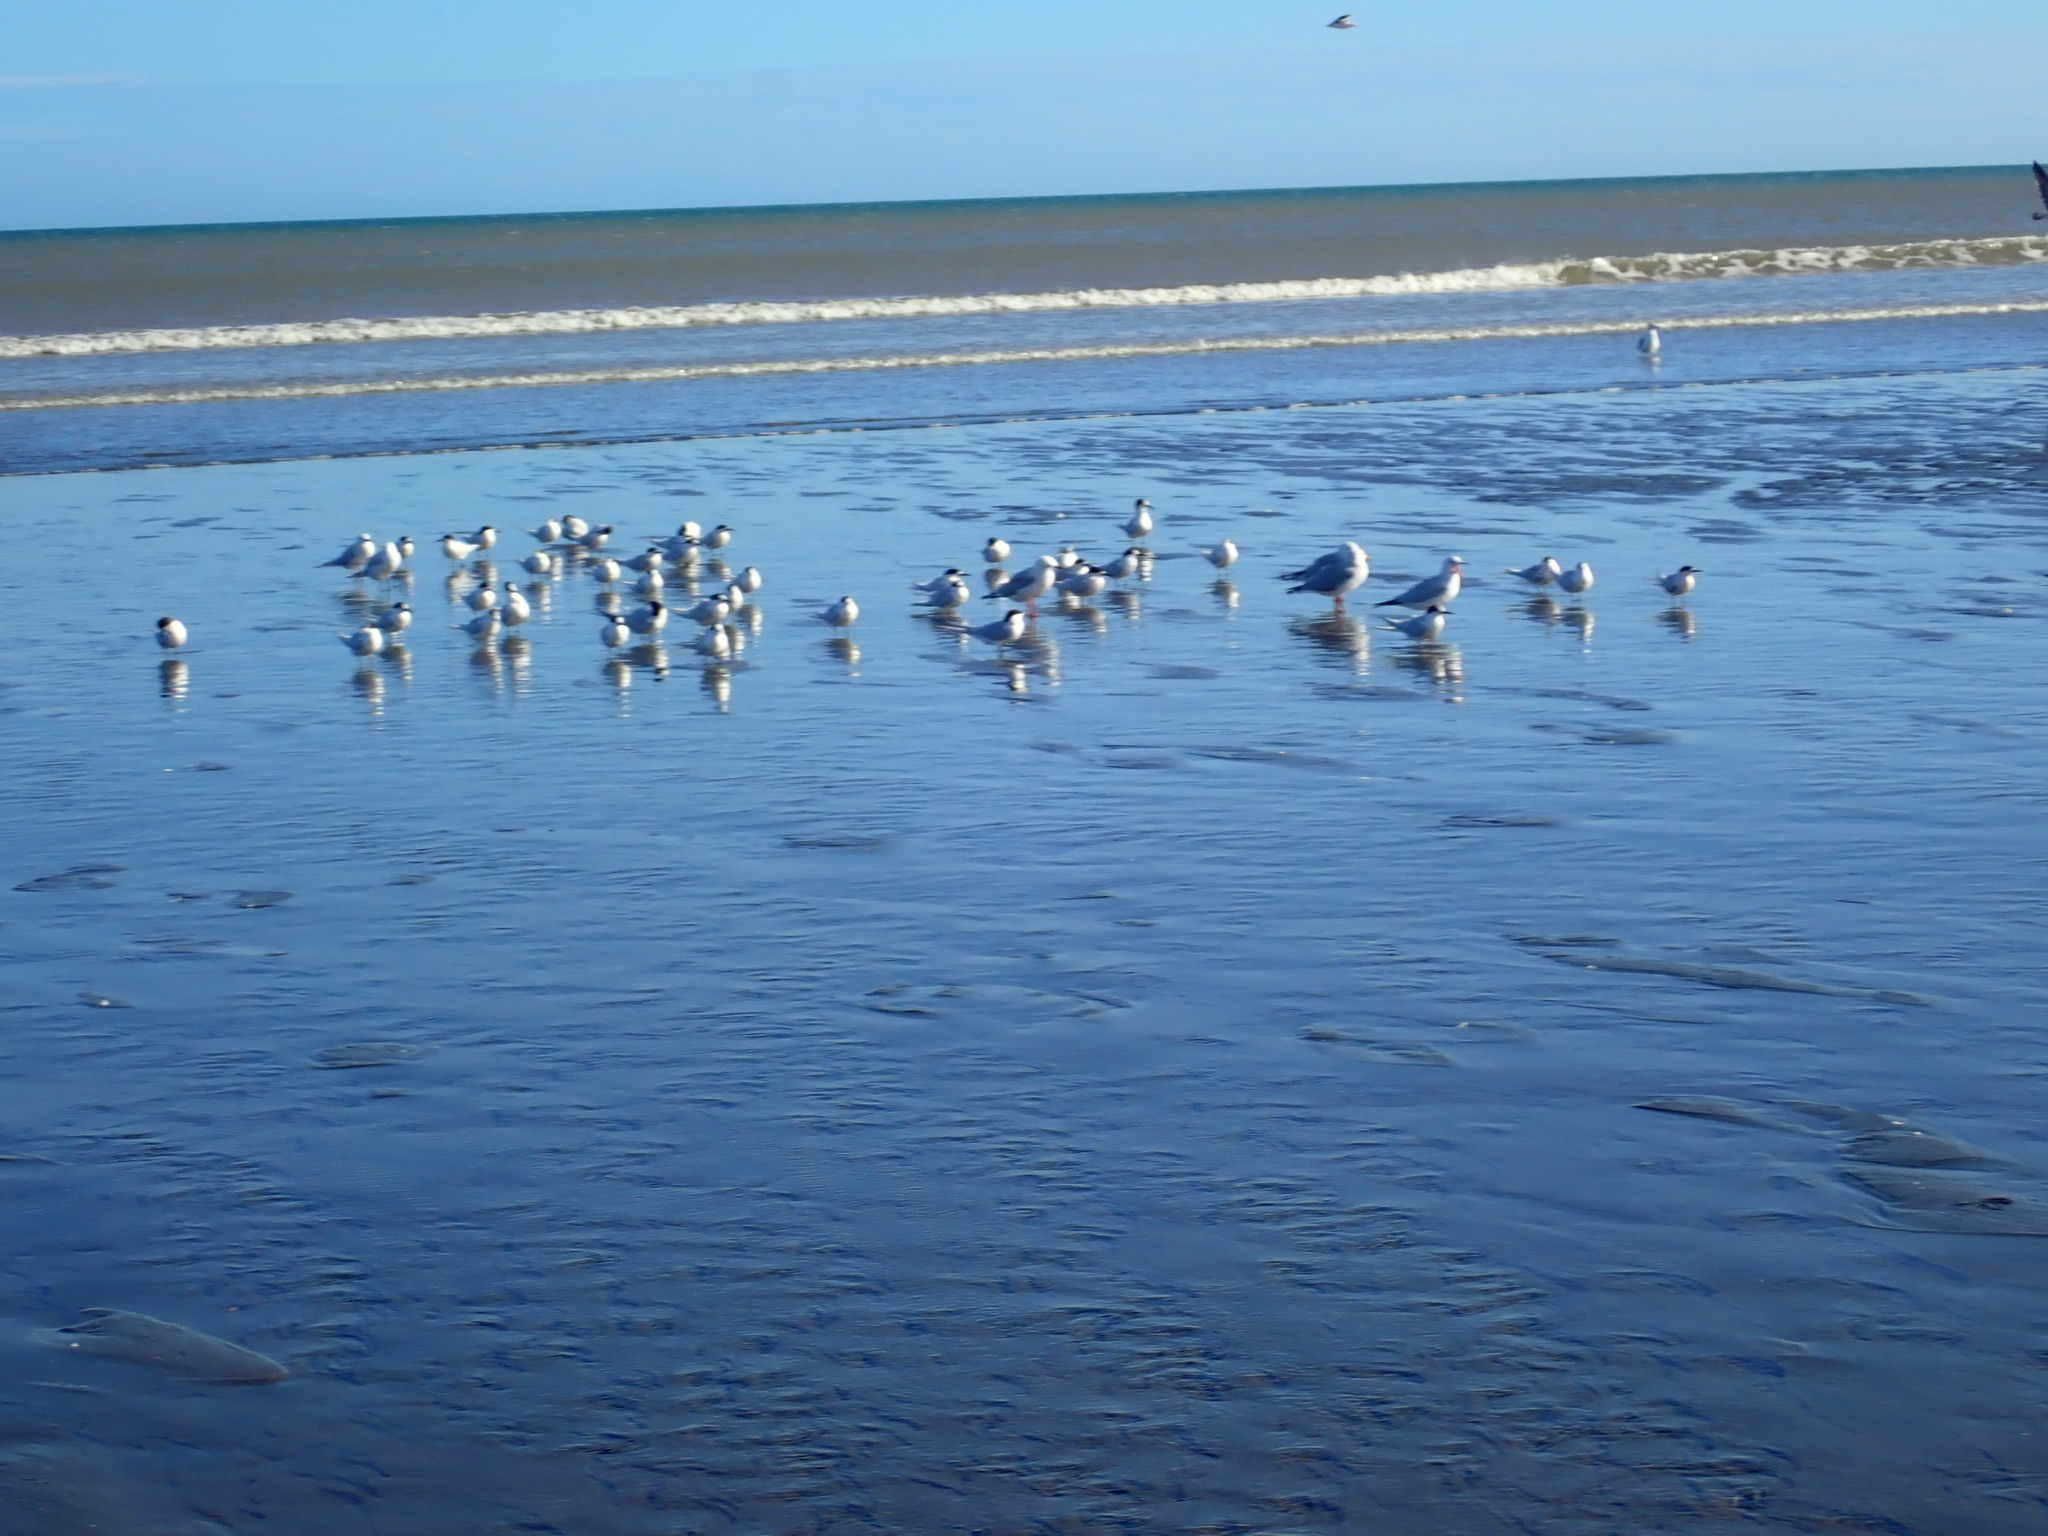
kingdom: Animalia
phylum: Chordata
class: Aves
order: Charadriiformes
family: Laridae
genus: Sterna
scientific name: Sterna striata
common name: White-fronted tern
